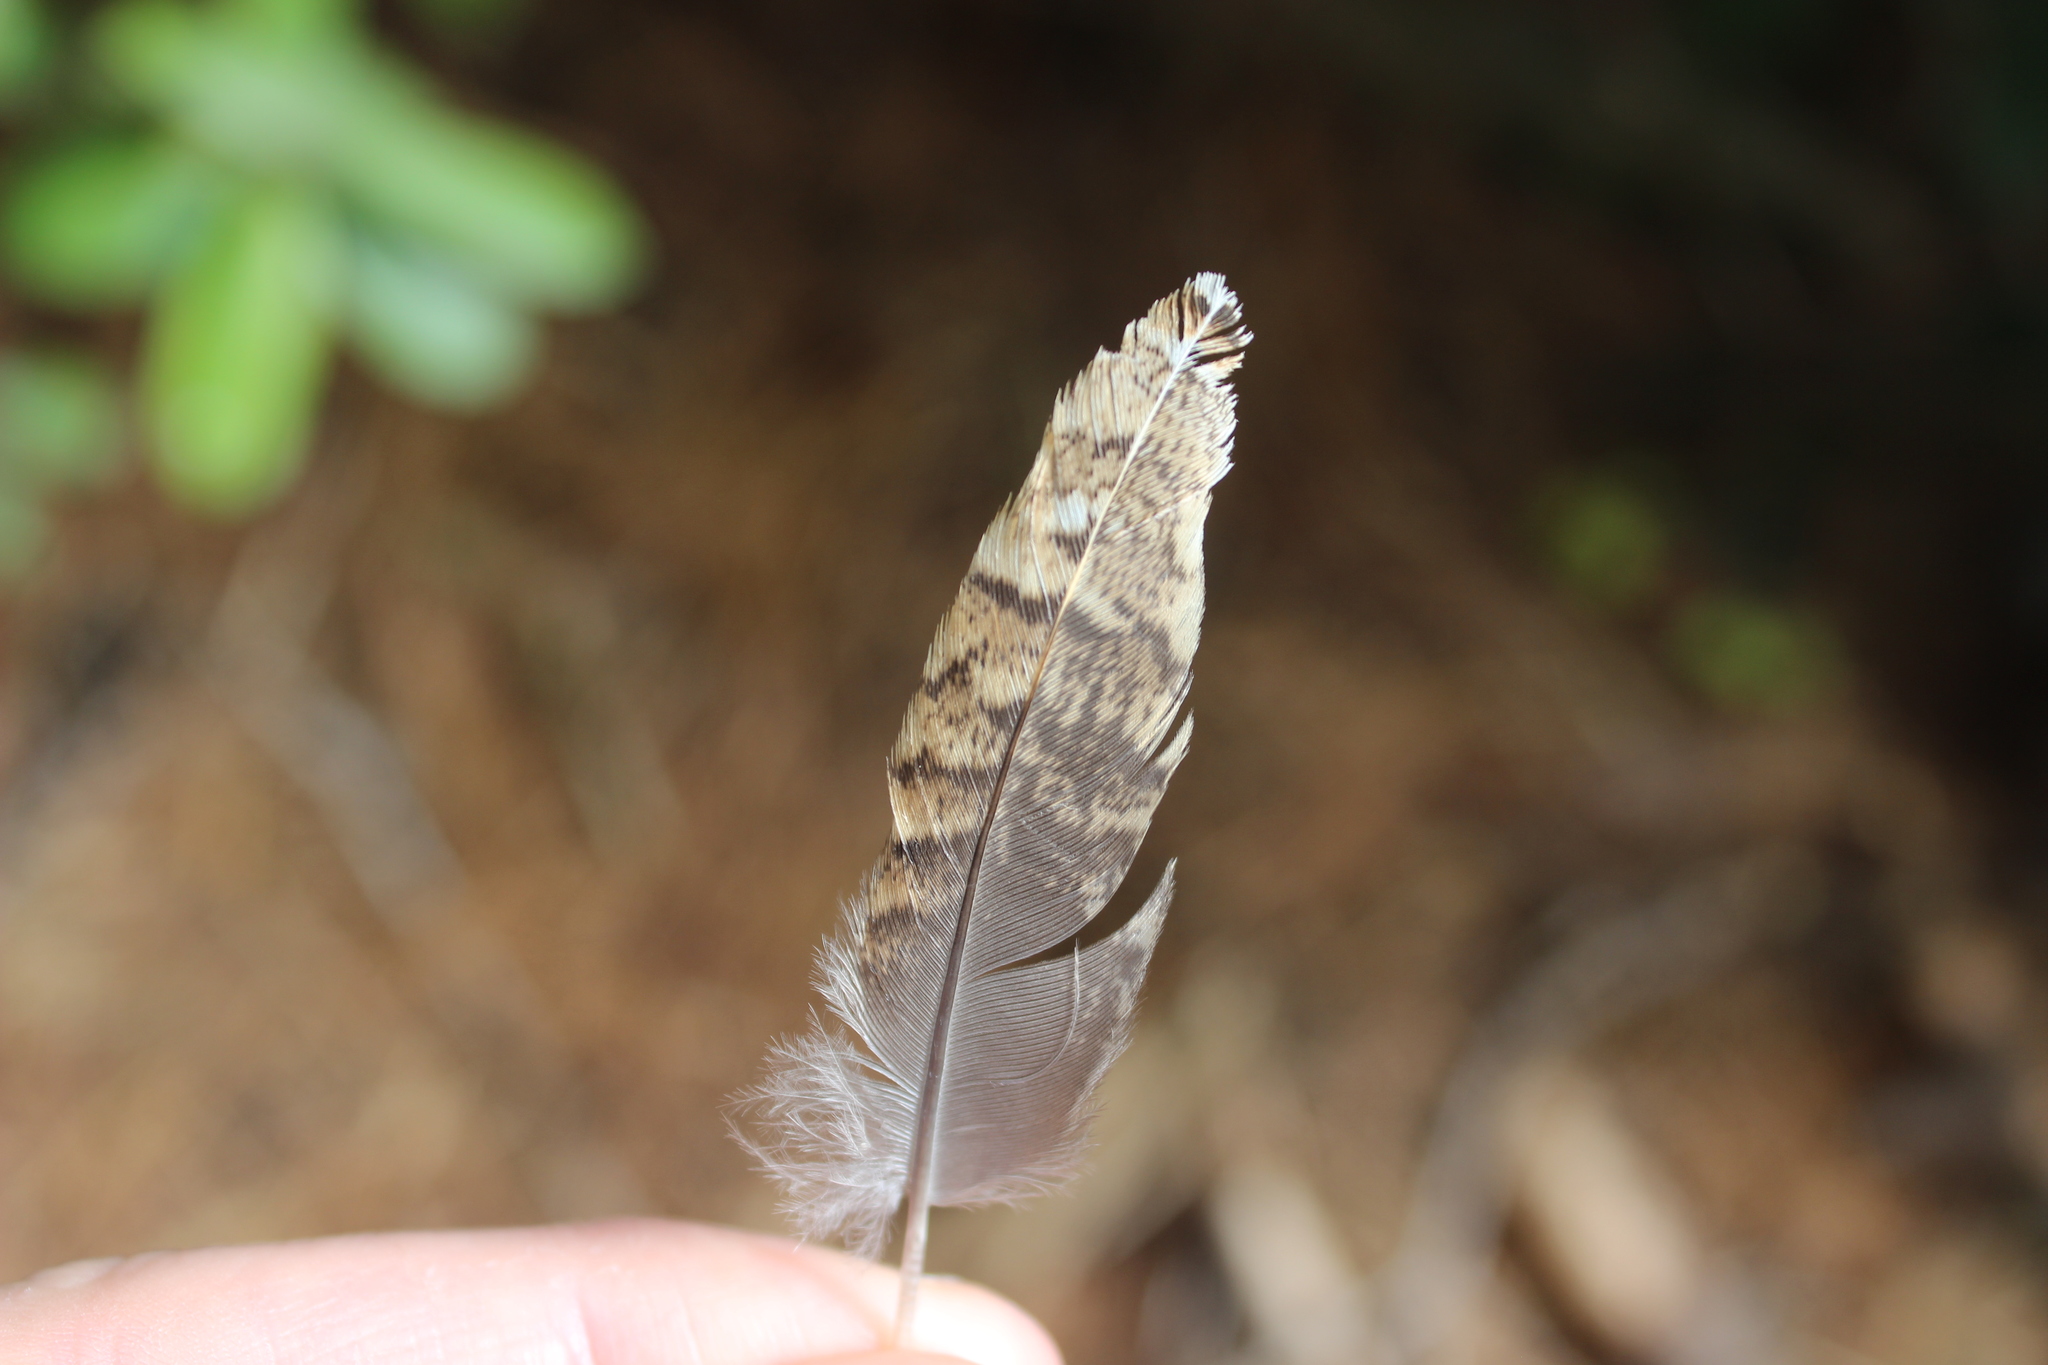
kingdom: Animalia
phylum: Chordata
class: Aves
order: Galliformes
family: Odontophoridae
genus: Callipepla
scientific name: Callipepla californica
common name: California quail
